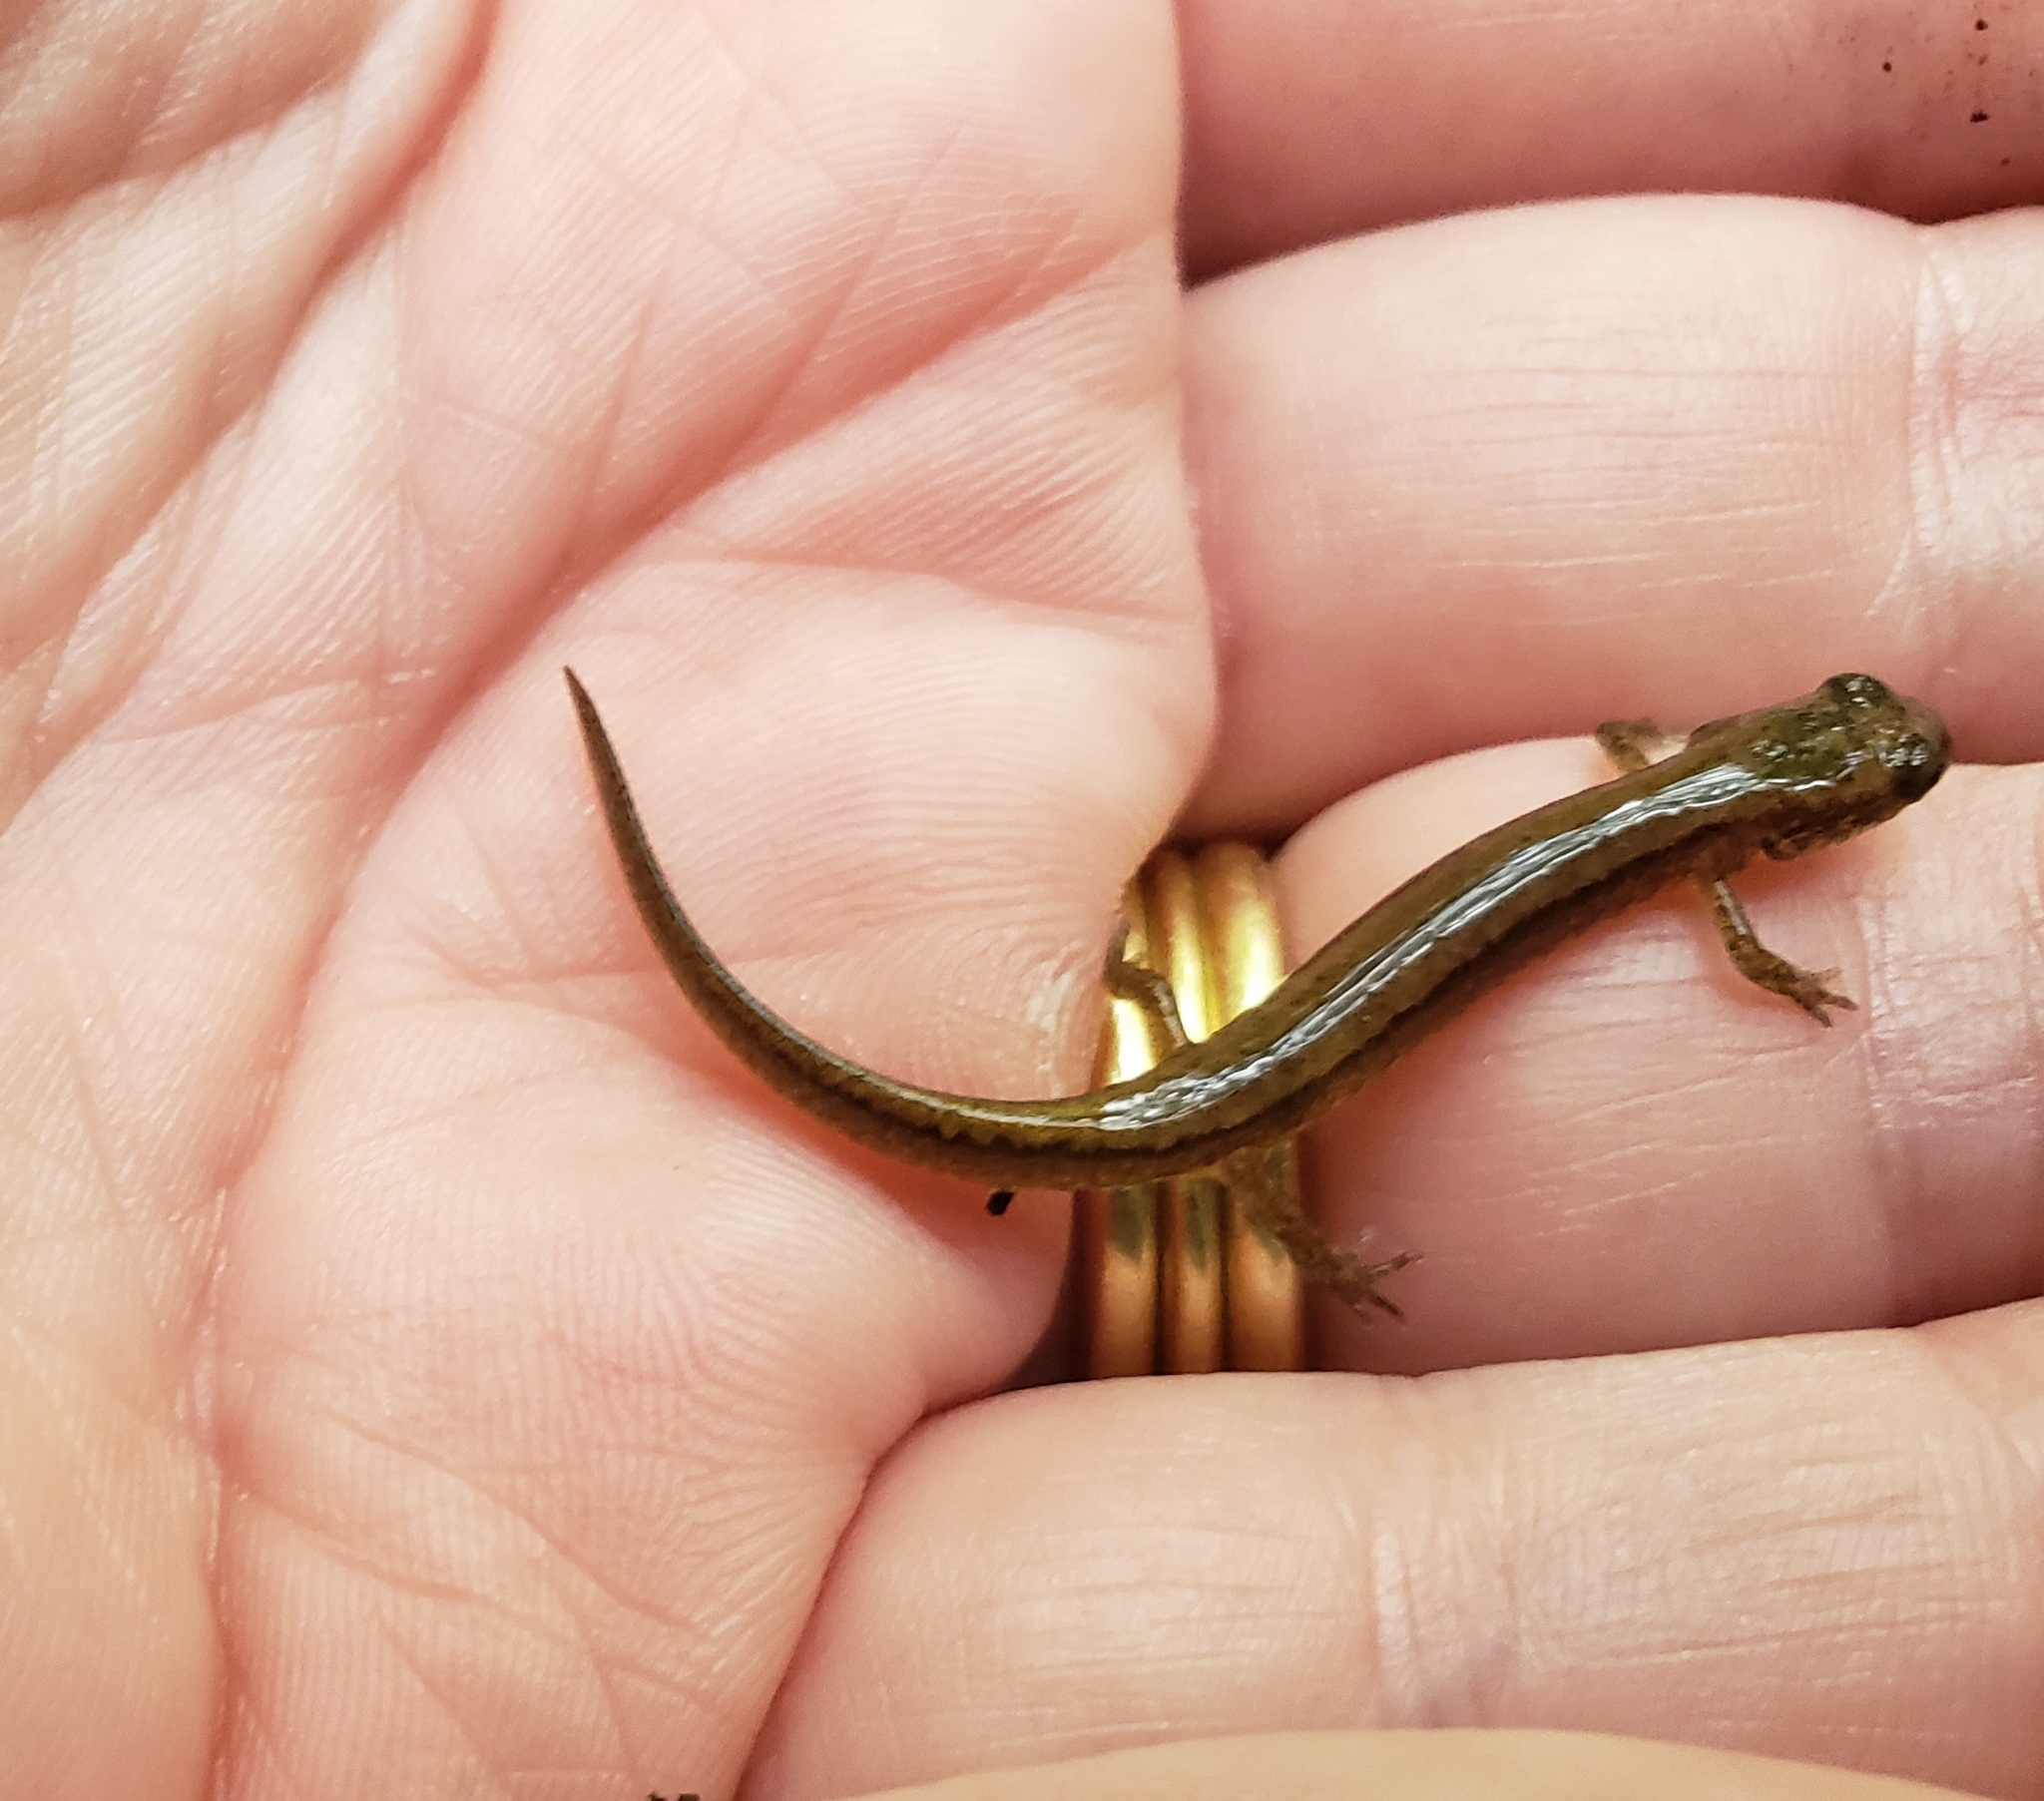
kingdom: Animalia
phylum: Chordata
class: Amphibia
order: Caudata
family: Plethodontidae
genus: Eurycea
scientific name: Eurycea bislineata
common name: Northern two-lined salamander
